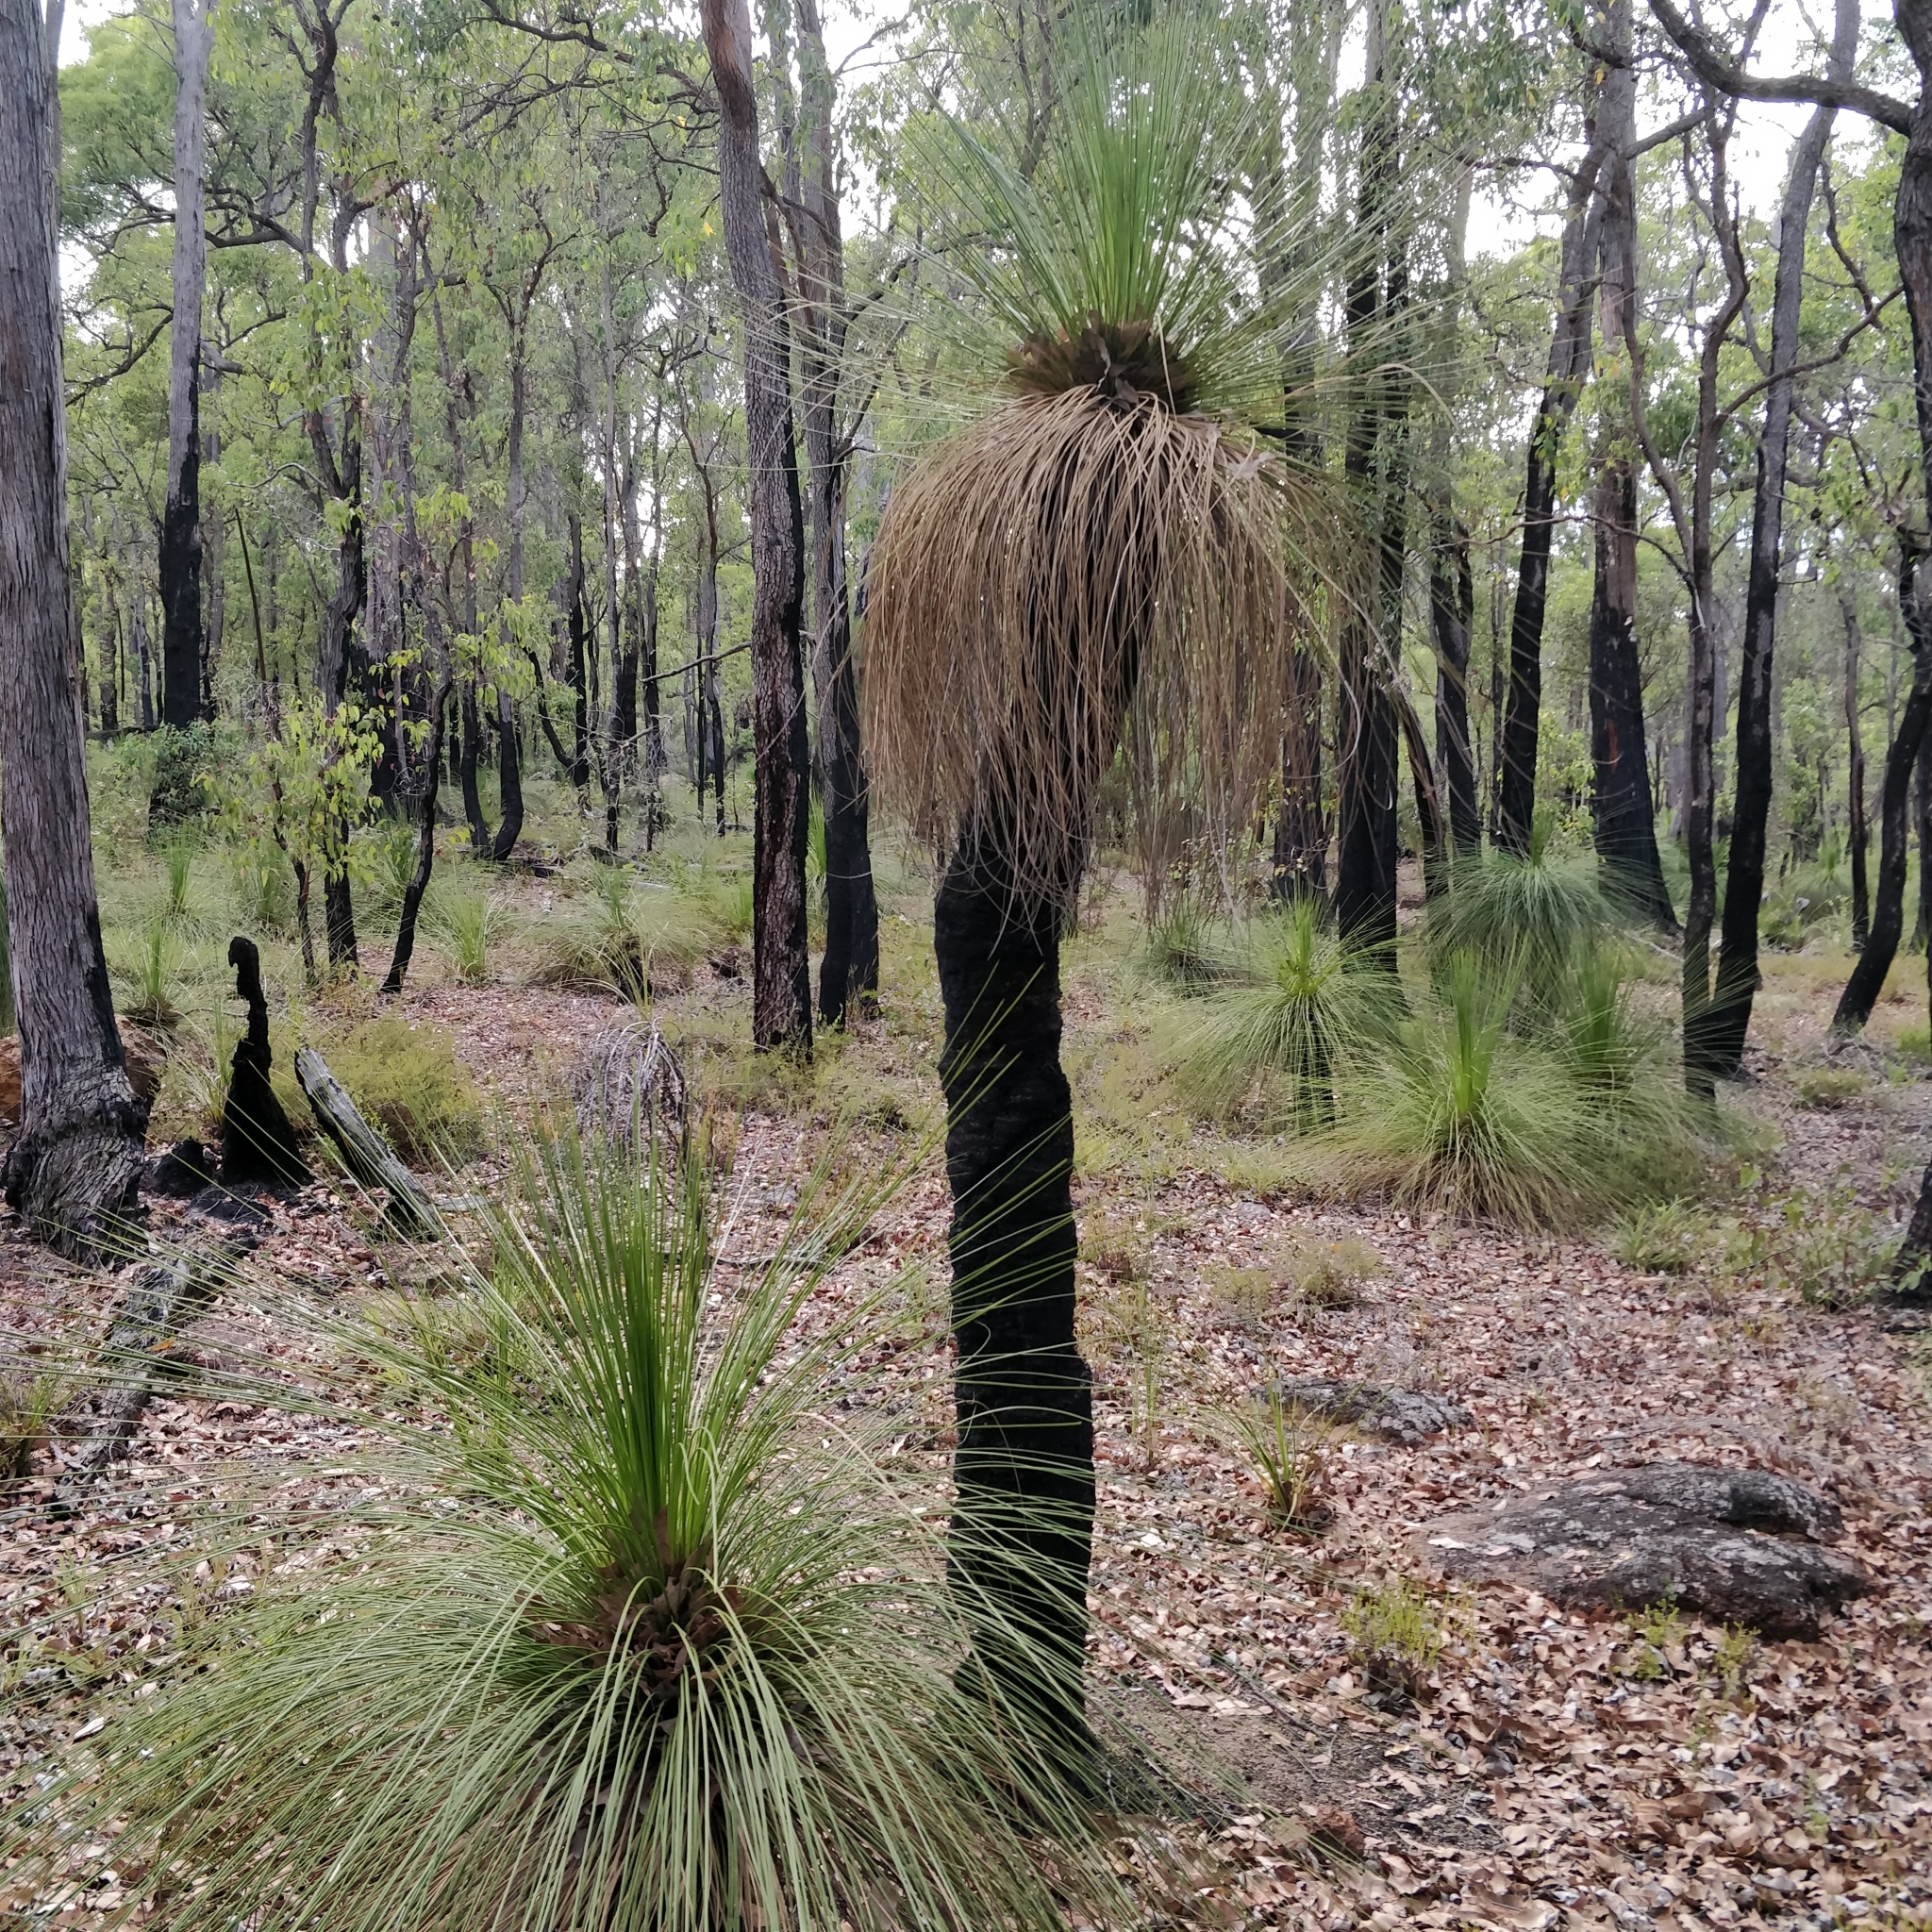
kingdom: Plantae
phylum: Tracheophyta
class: Liliopsida
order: Asparagales
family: Asphodelaceae
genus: Xanthorrhoea
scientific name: Xanthorrhoea preissii
